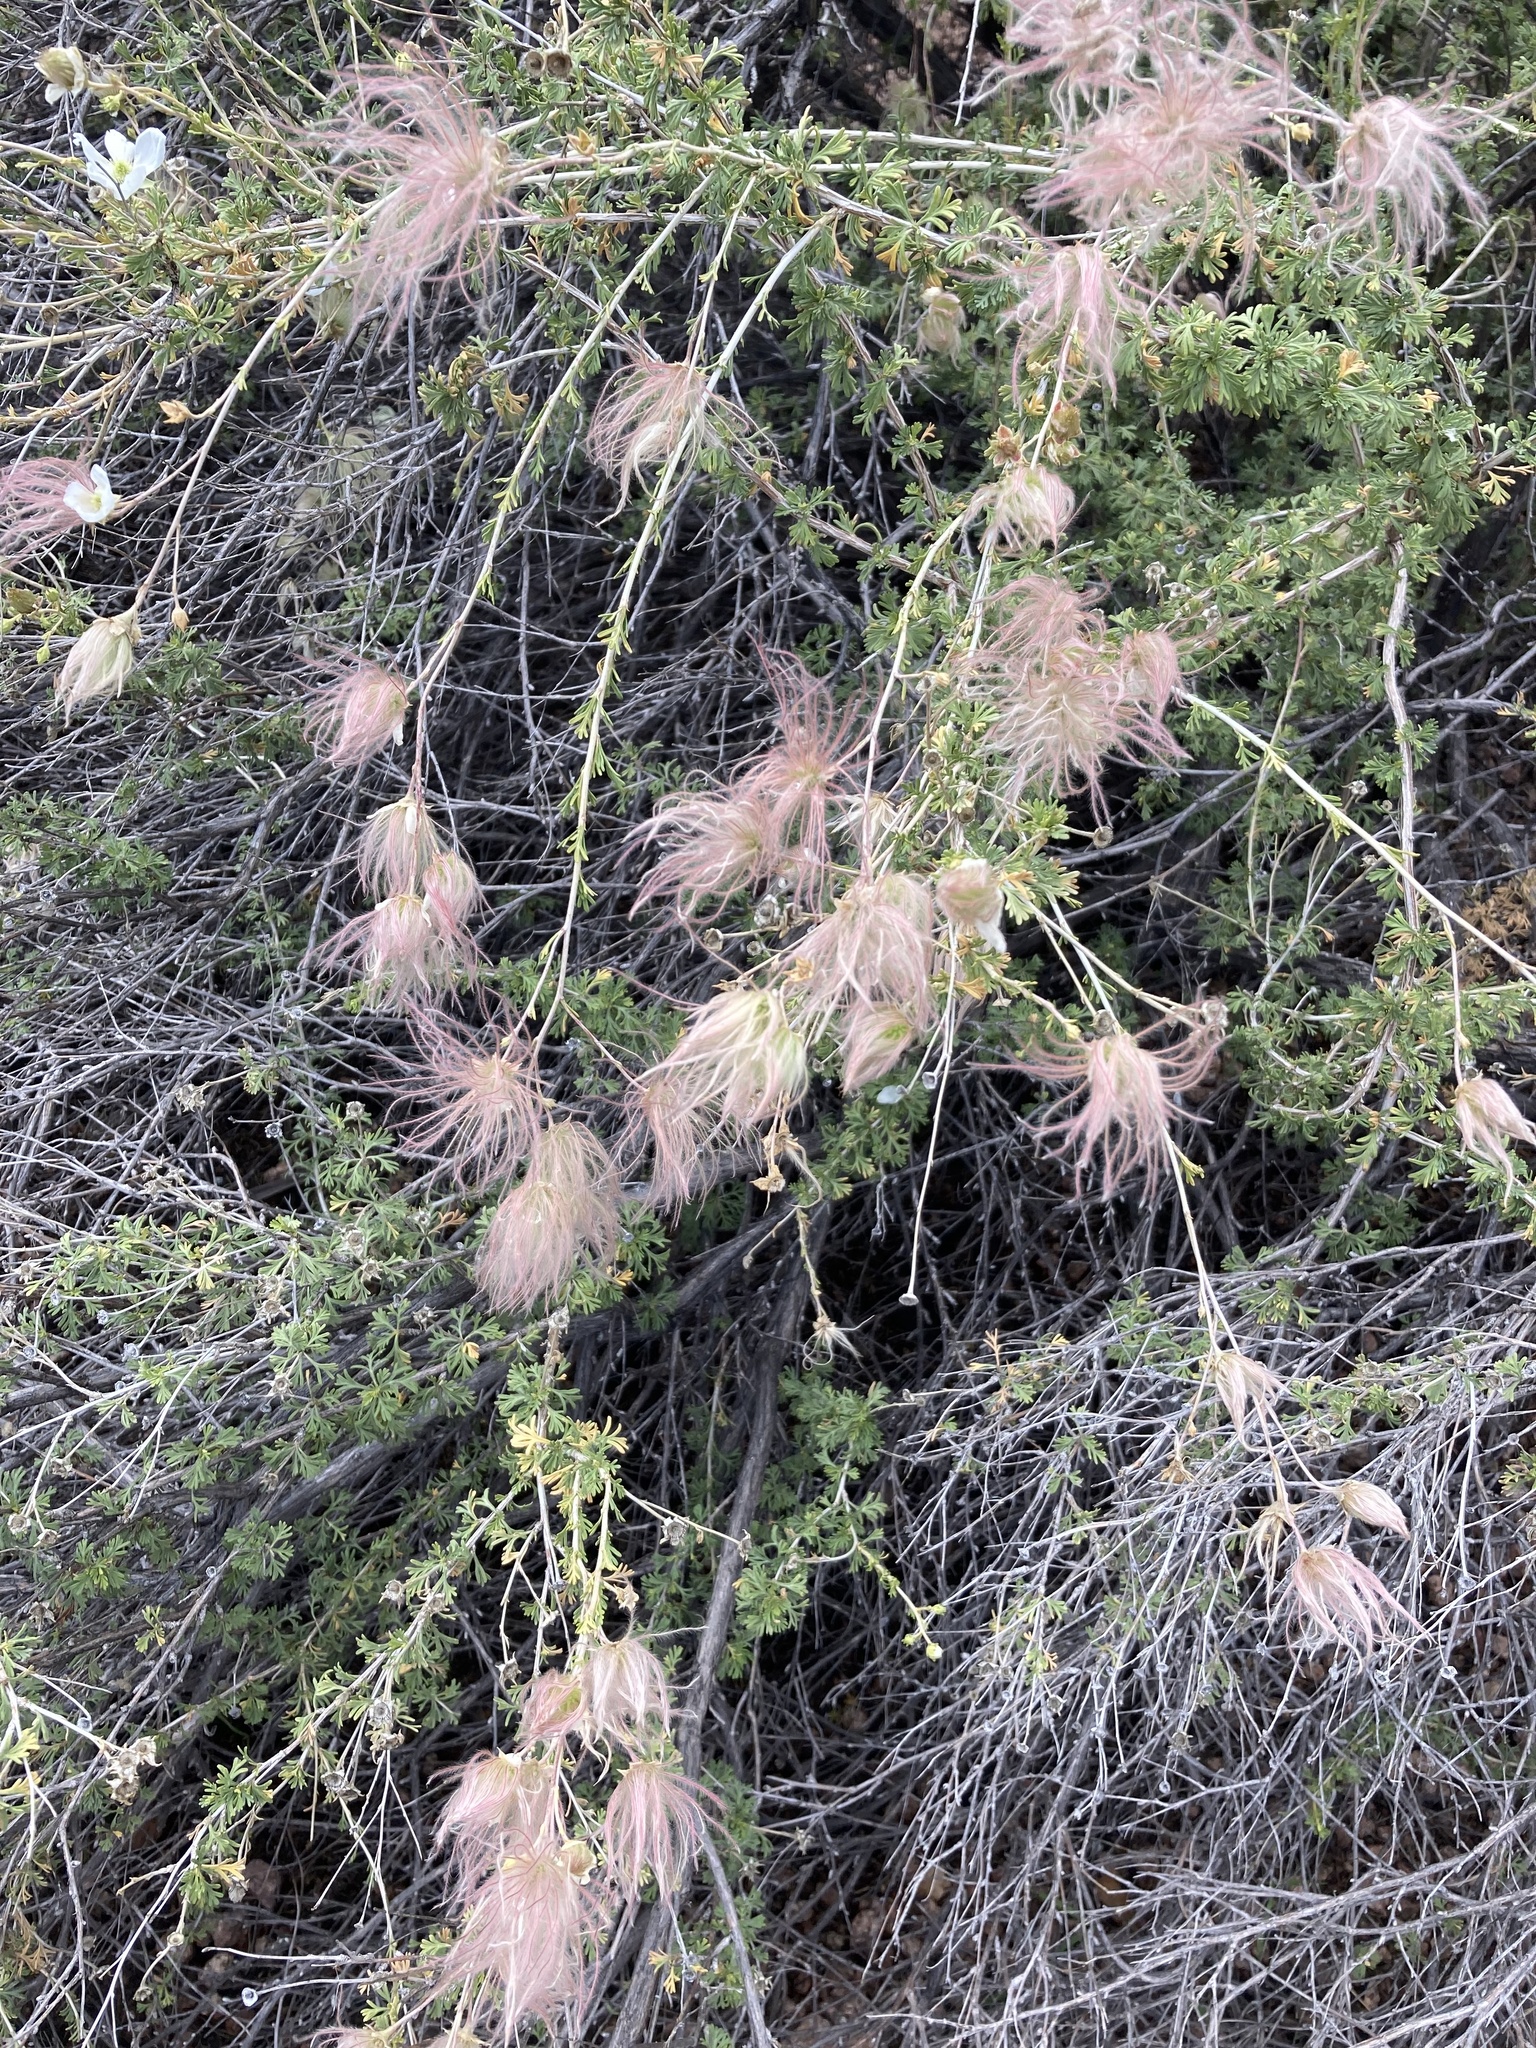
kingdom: Plantae
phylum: Tracheophyta
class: Magnoliopsida
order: Rosales
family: Rosaceae
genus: Fallugia
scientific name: Fallugia paradoxa
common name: Apache-plume
